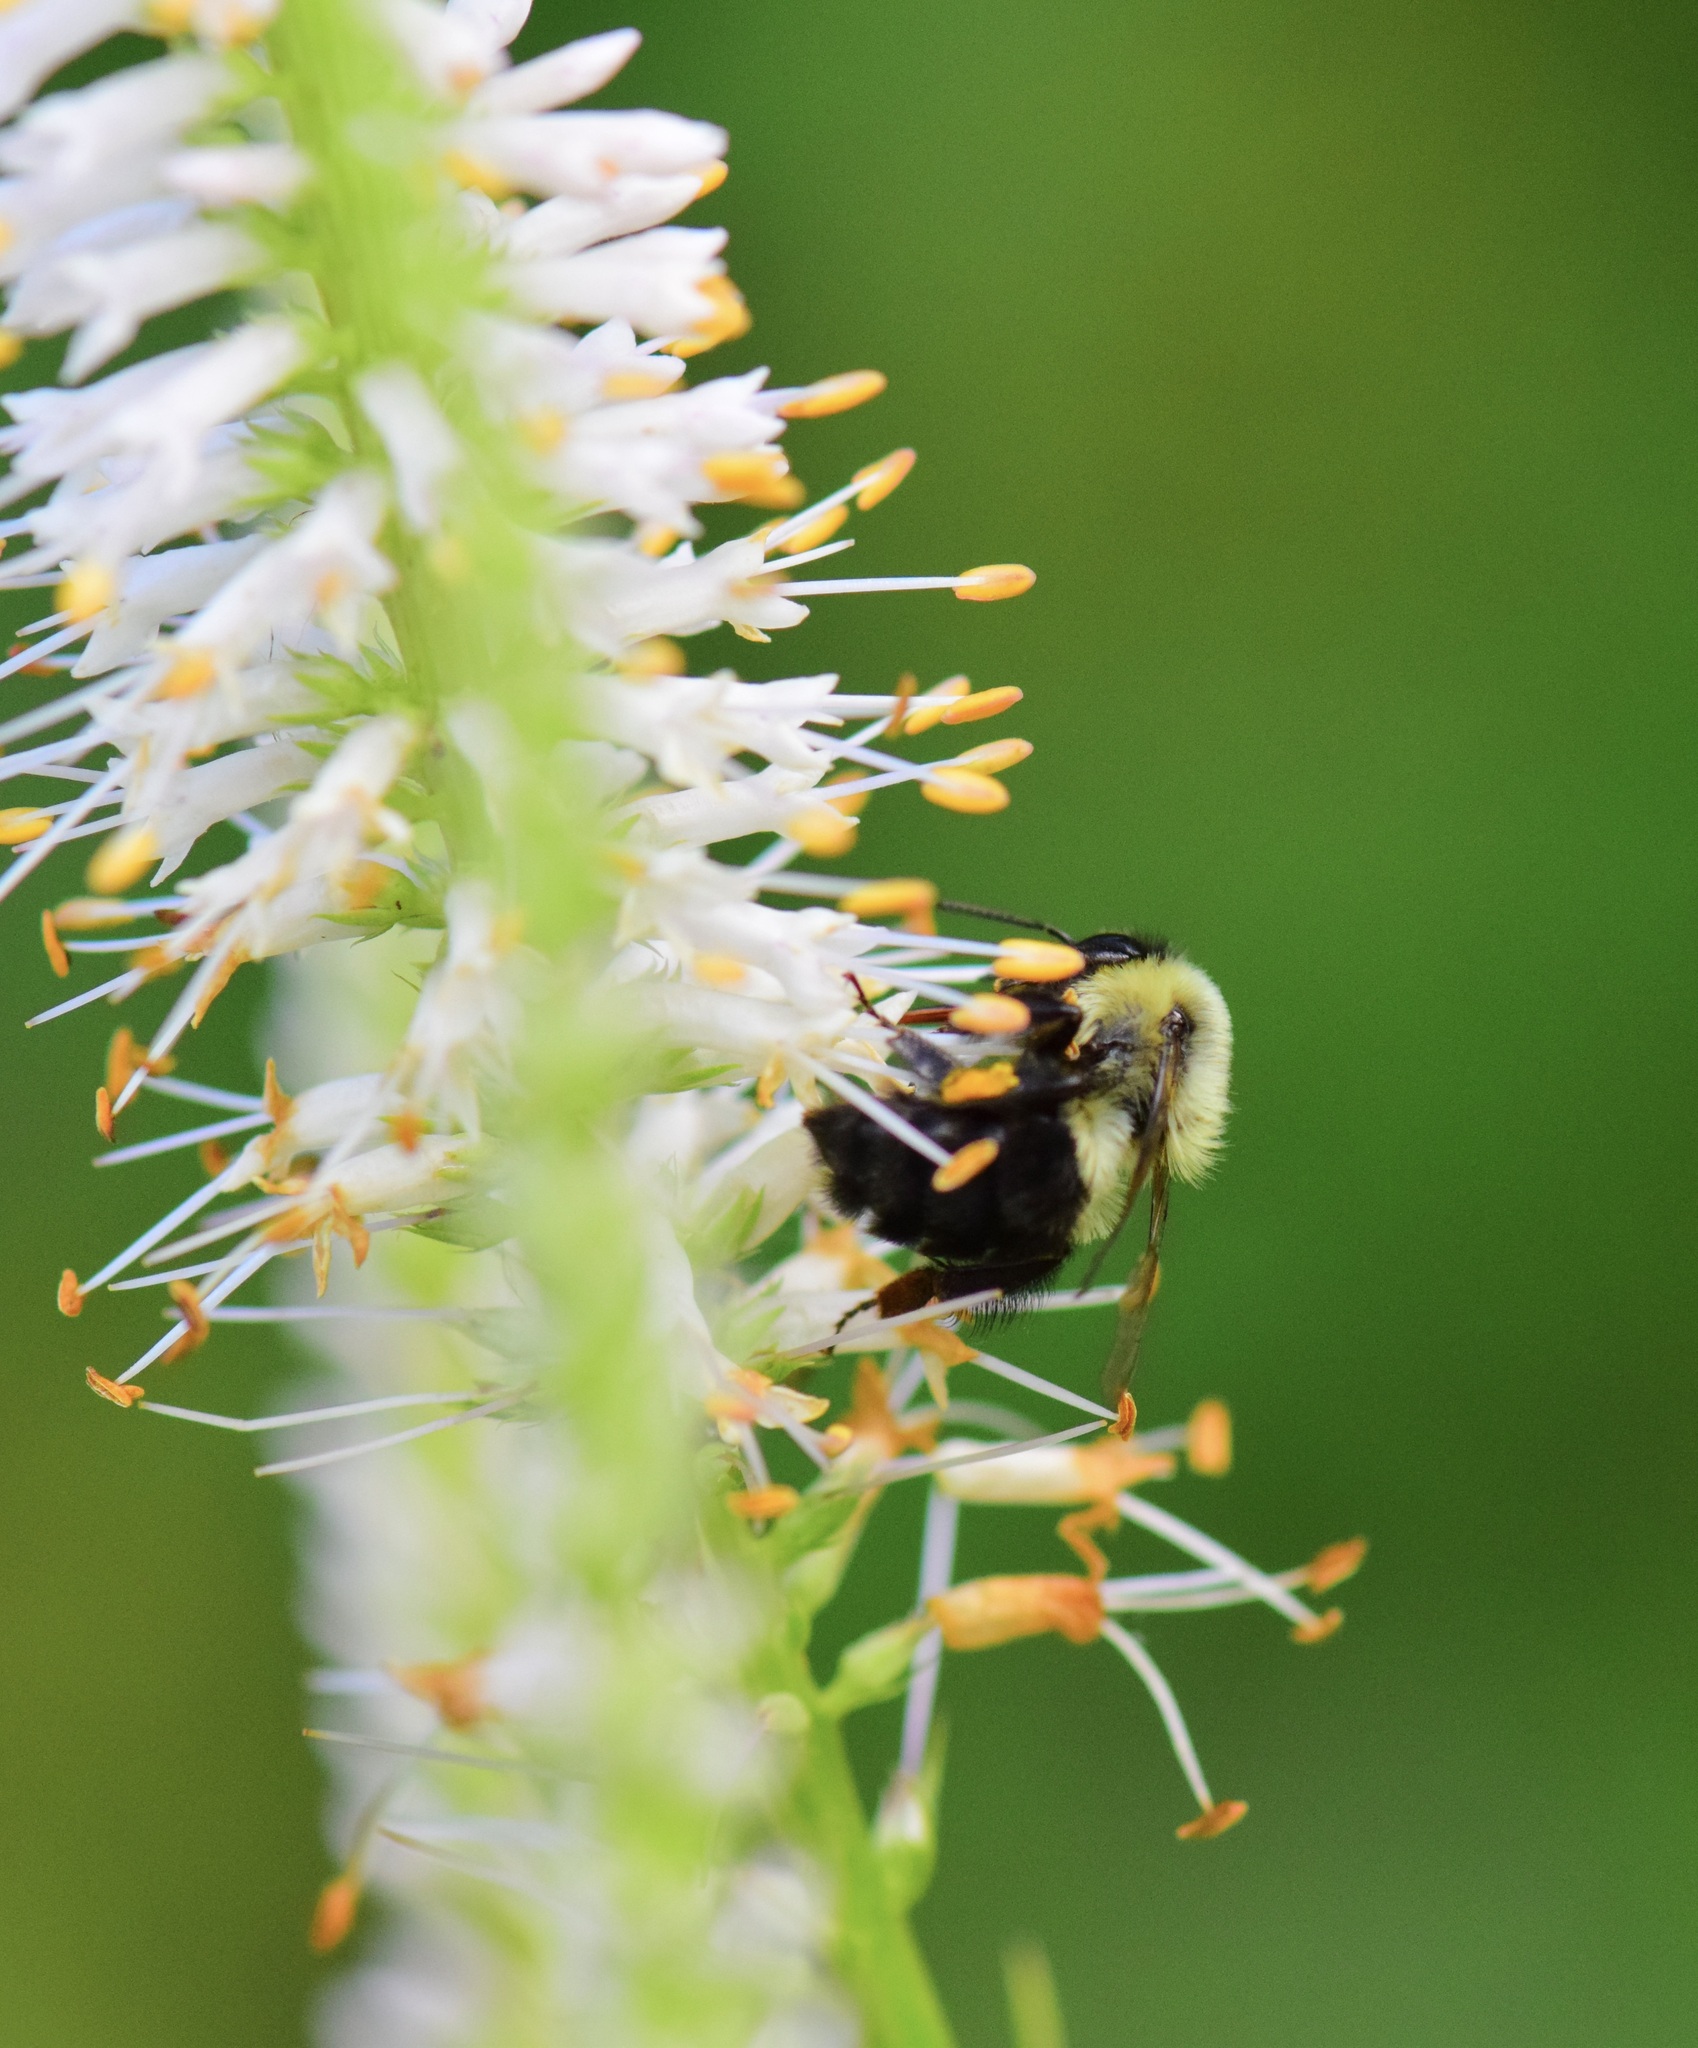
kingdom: Animalia
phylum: Arthropoda
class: Insecta
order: Hymenoptera
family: Apidae
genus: Bombus
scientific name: Bombus impatiens
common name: Common eastern bumble bee
